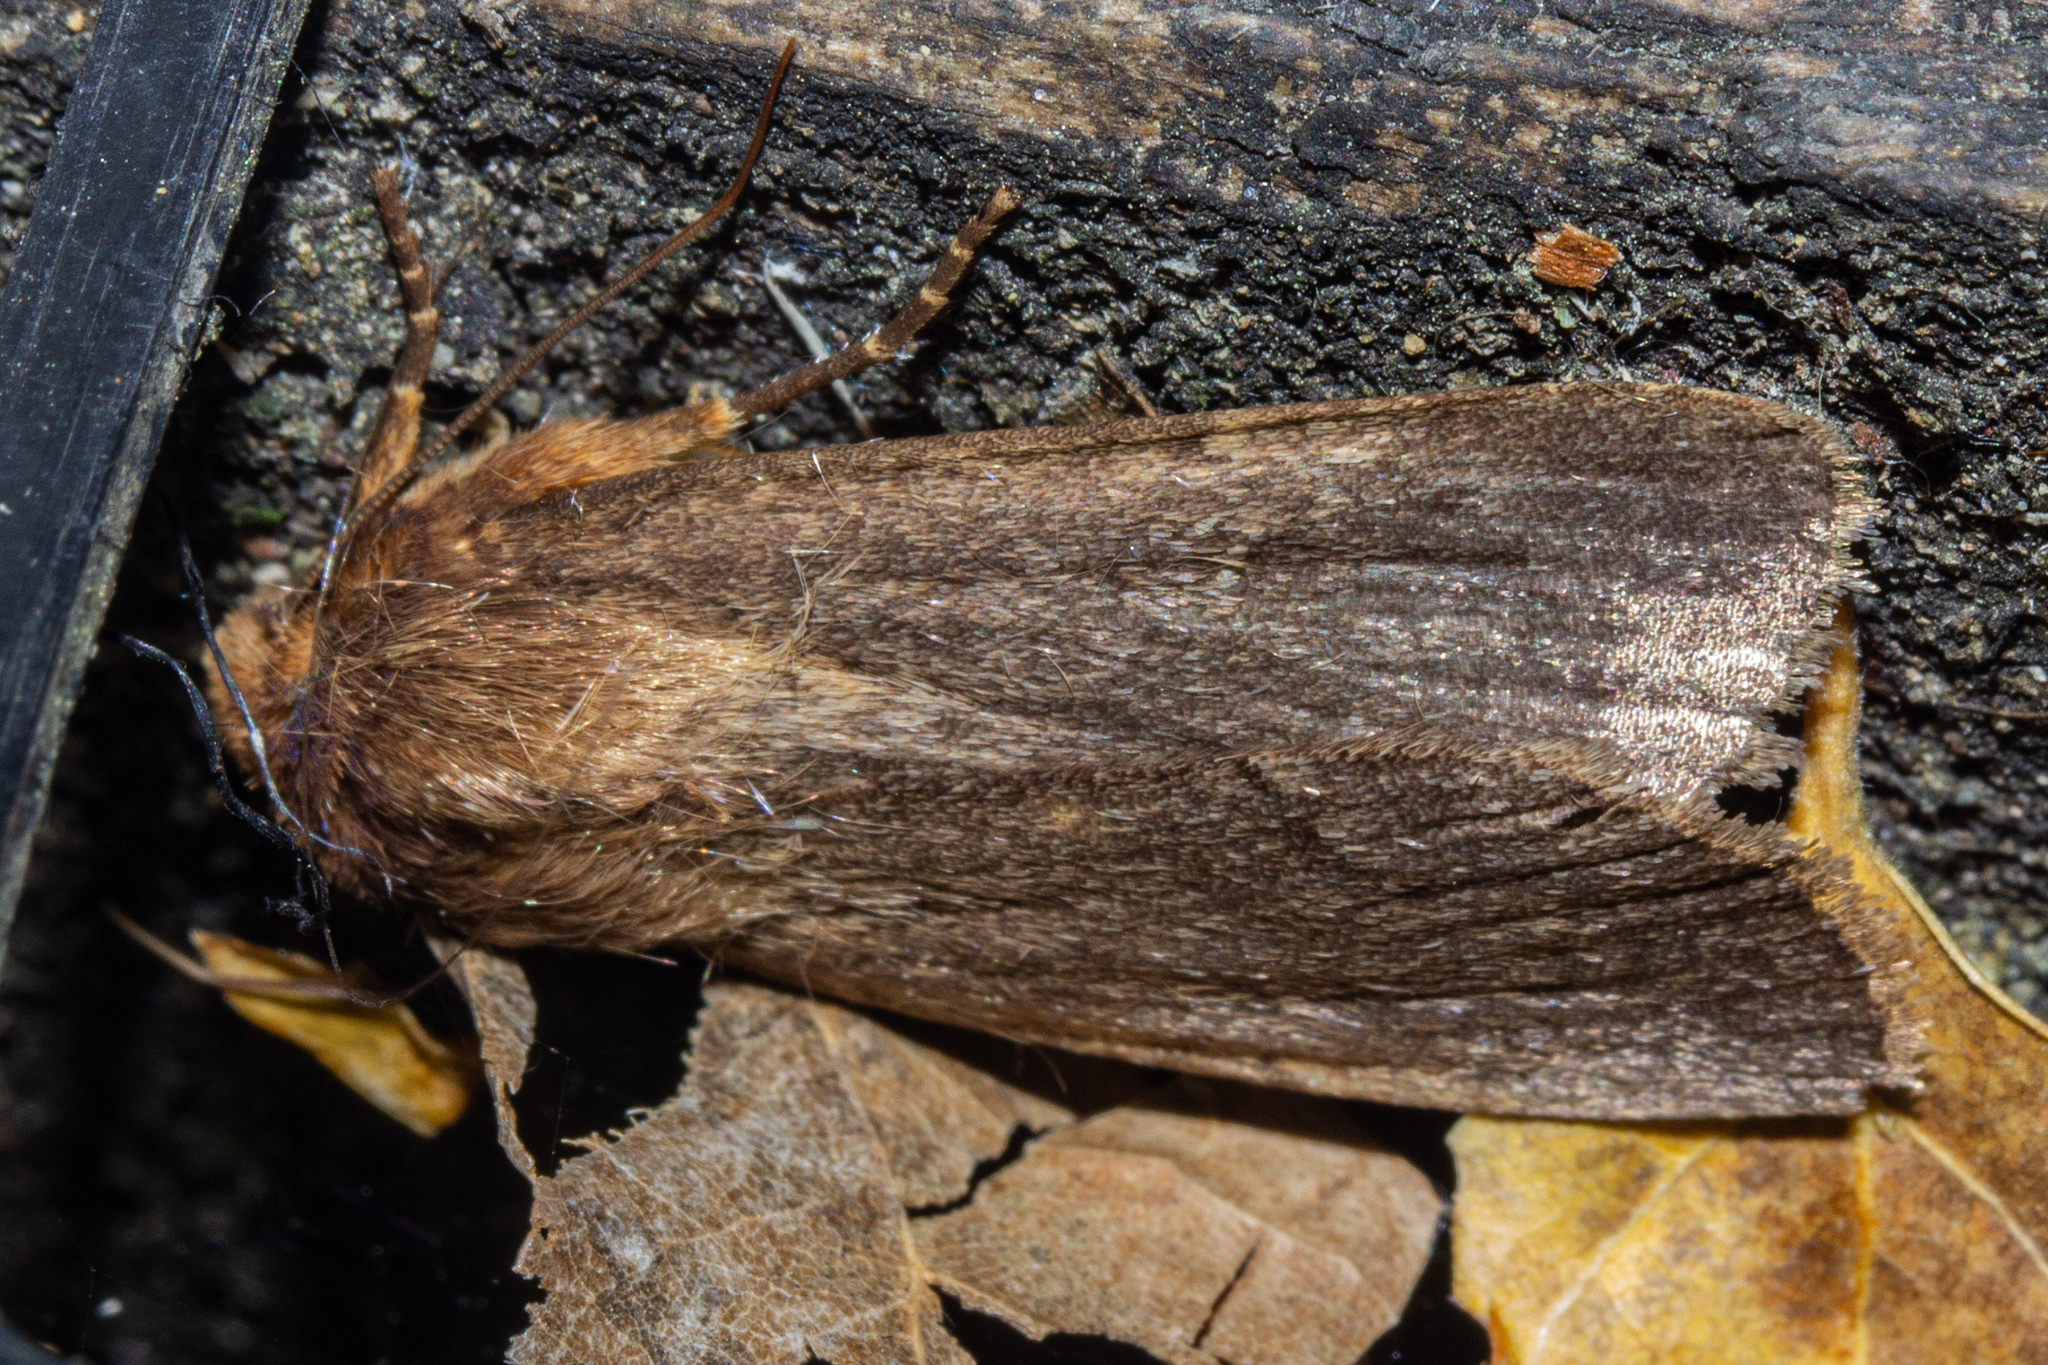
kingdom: Animalia
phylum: Arthropoda
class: Insecta
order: Lepidoptera
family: Noctuidae
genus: Bityla
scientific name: Bityla defigurata
